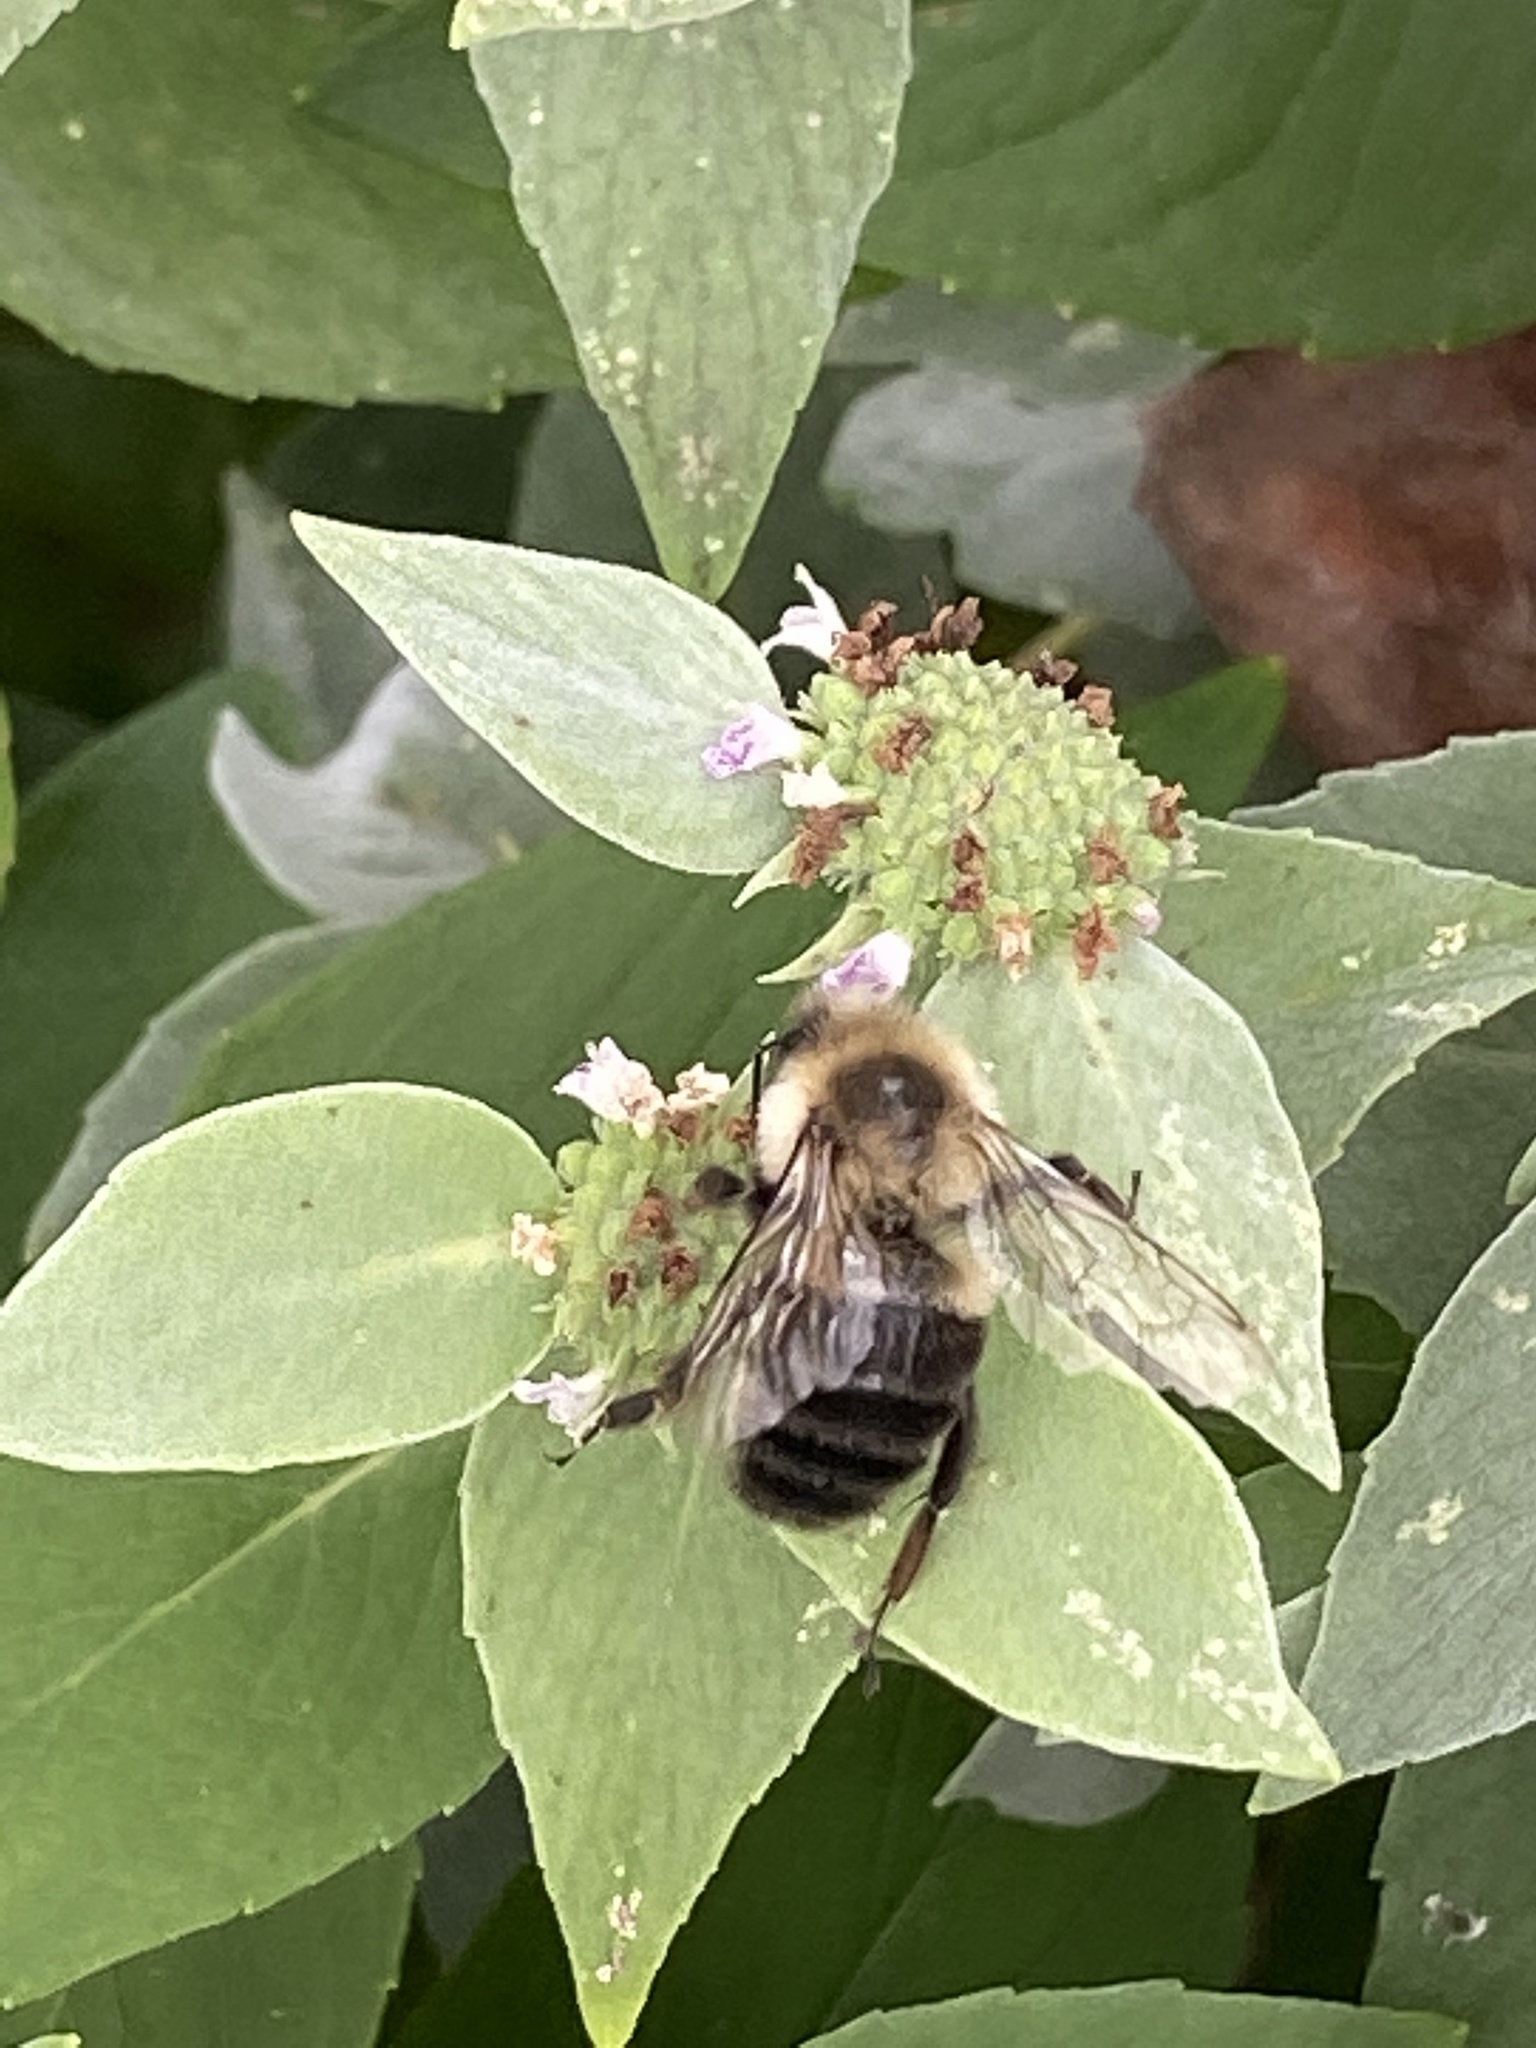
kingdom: Animalia
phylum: Arthropoda
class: Insecta
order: Hymenoptera
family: Apidae
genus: Bombus
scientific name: Bombus impatiens
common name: Common eastern bumble bee
